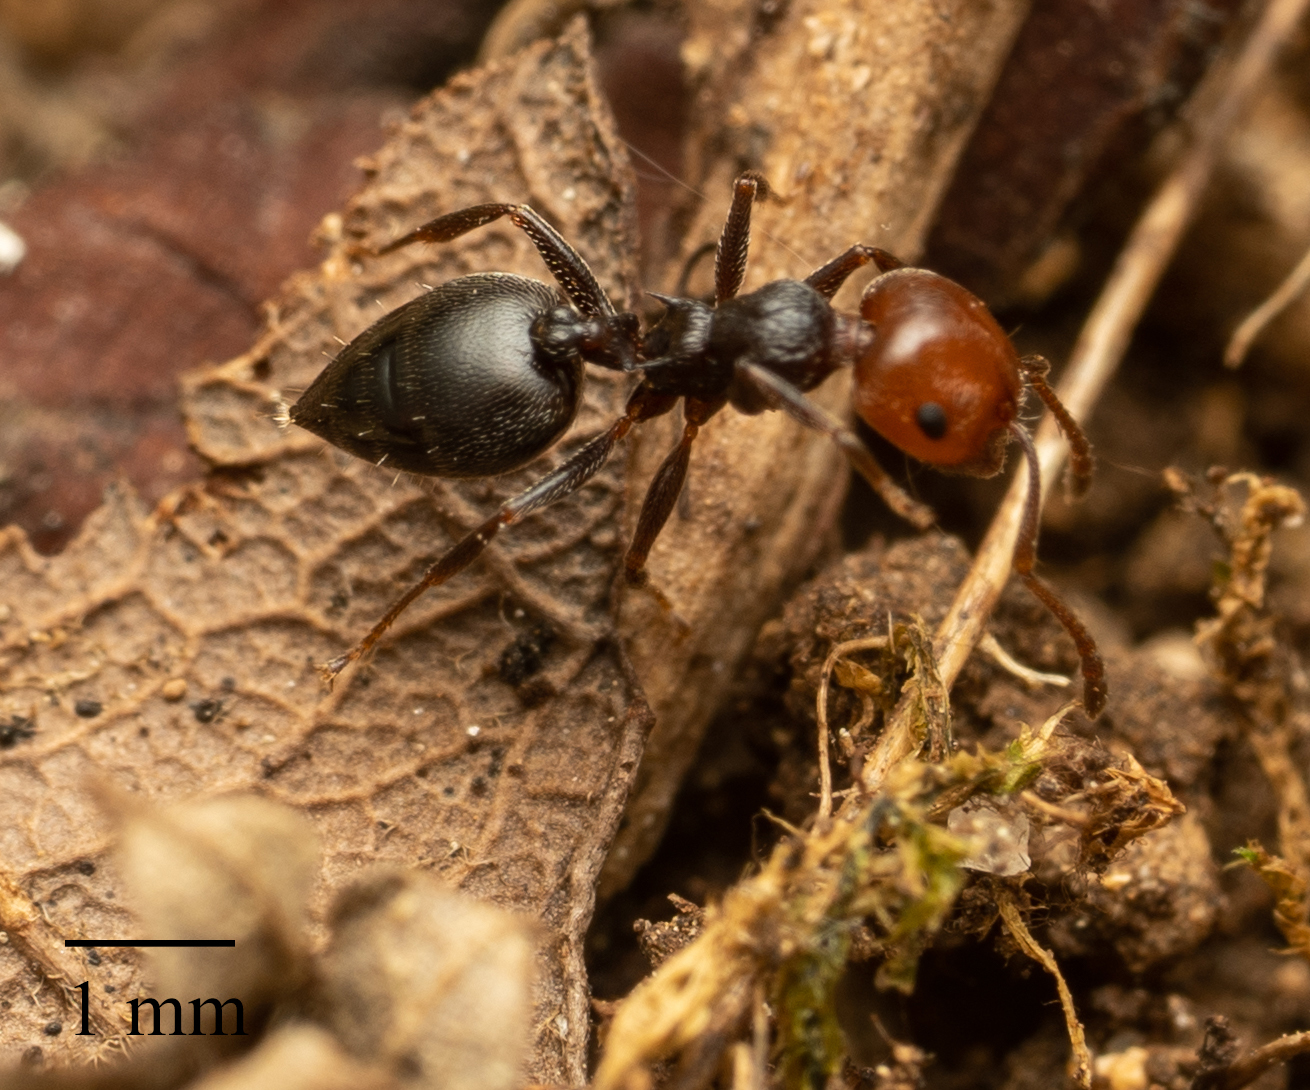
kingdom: Animalia
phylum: Arthropoda
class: Insecta
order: Hymenoptera
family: Formicidae
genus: Crematogaster
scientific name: Crematogaster scutellaris
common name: Fourmi du liège
